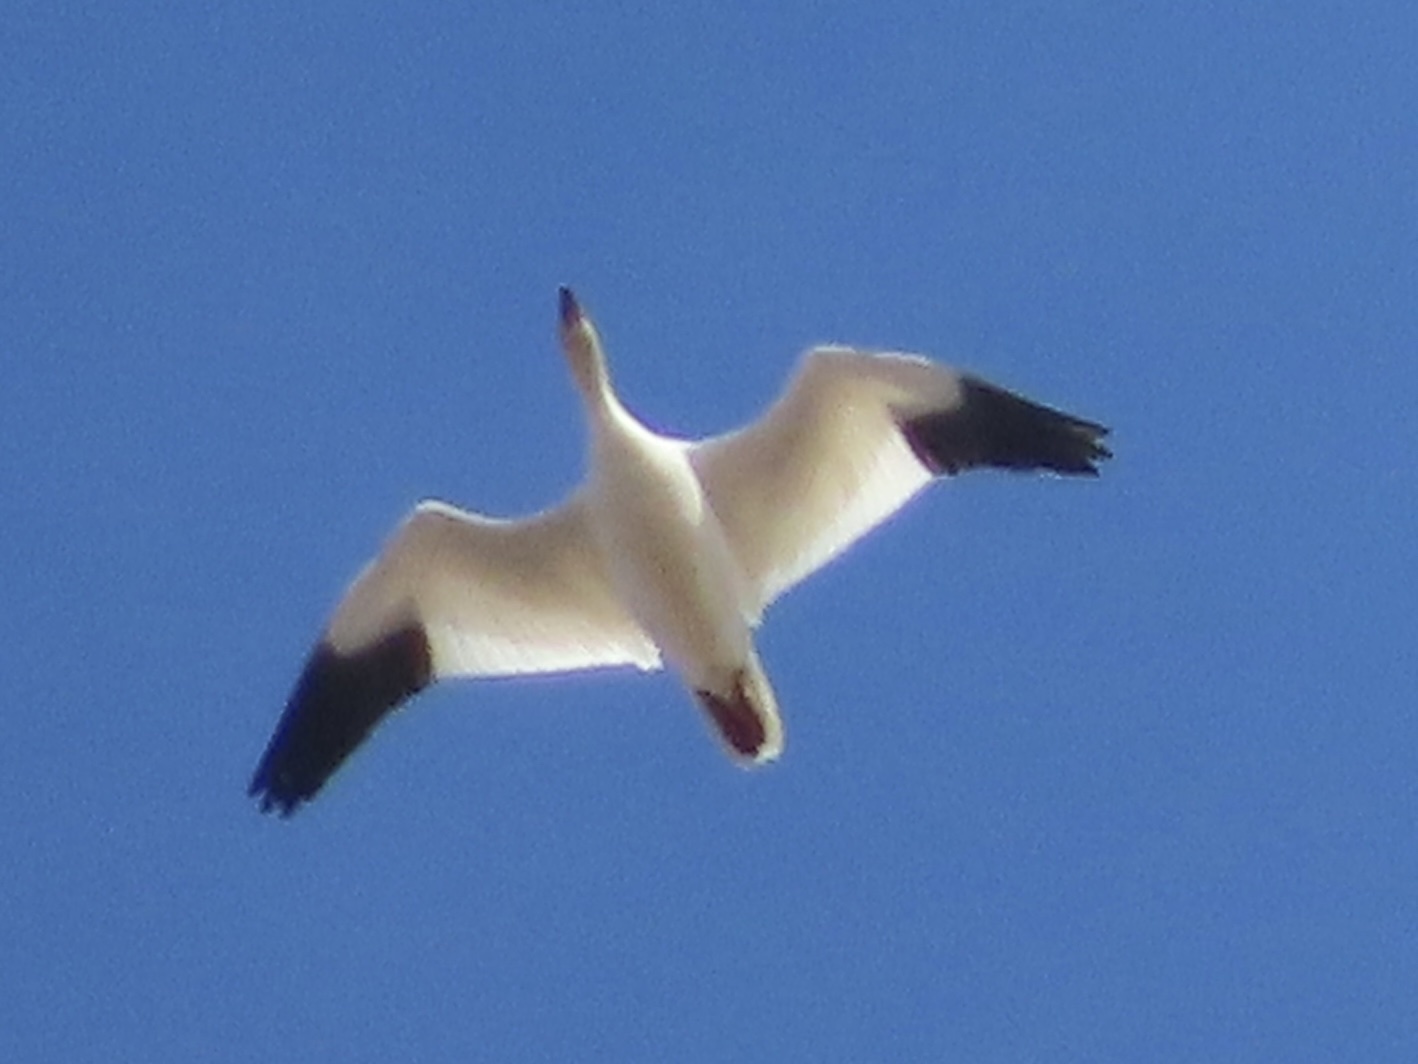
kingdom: Animalia
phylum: Chordata
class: Aves
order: Anseriformes
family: Anatidae
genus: Anser
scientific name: Anser rossii
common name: Ross's goose
